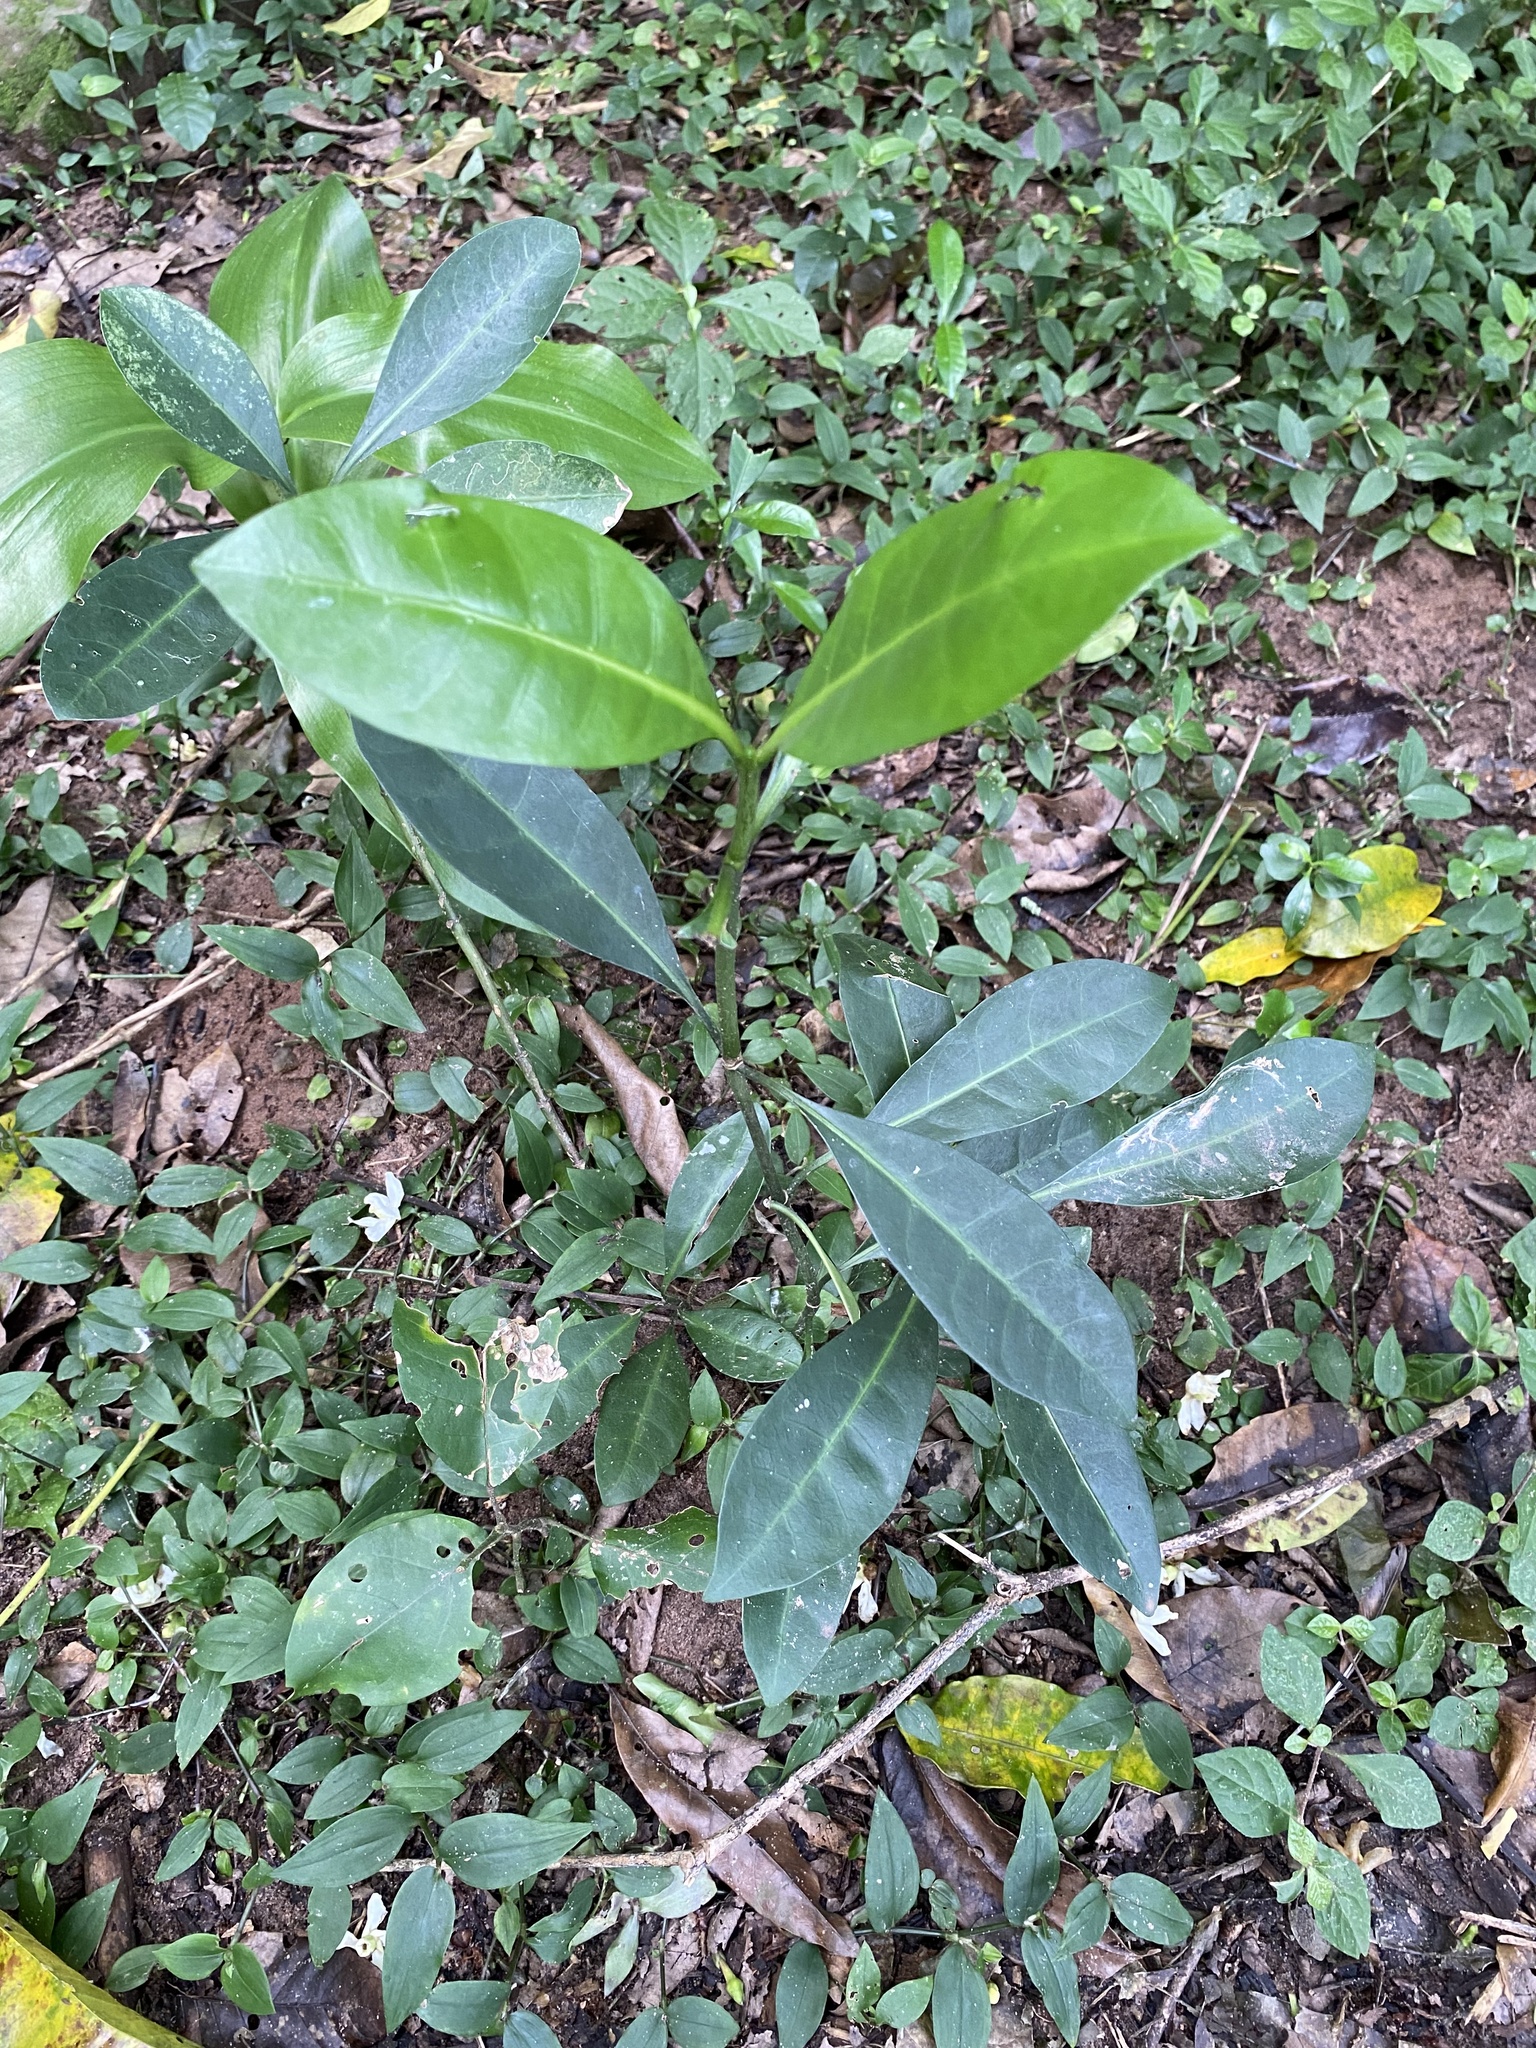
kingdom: Plantae
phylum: Tracheophyta
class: Magnoliopsida
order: Gentianales
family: Rubiaceae
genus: Psychotria
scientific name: Psychotria capensis
